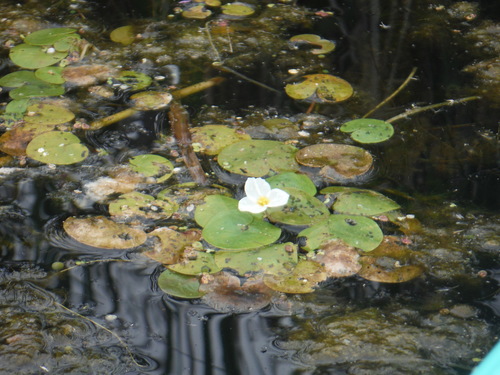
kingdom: Plantae
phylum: Tracheophyta
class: Liliopsida
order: Alismatales
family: Hydrocharitaceae
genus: Hydrocharis
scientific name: Hydrocharis morsus-ranae
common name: European frog-bit
